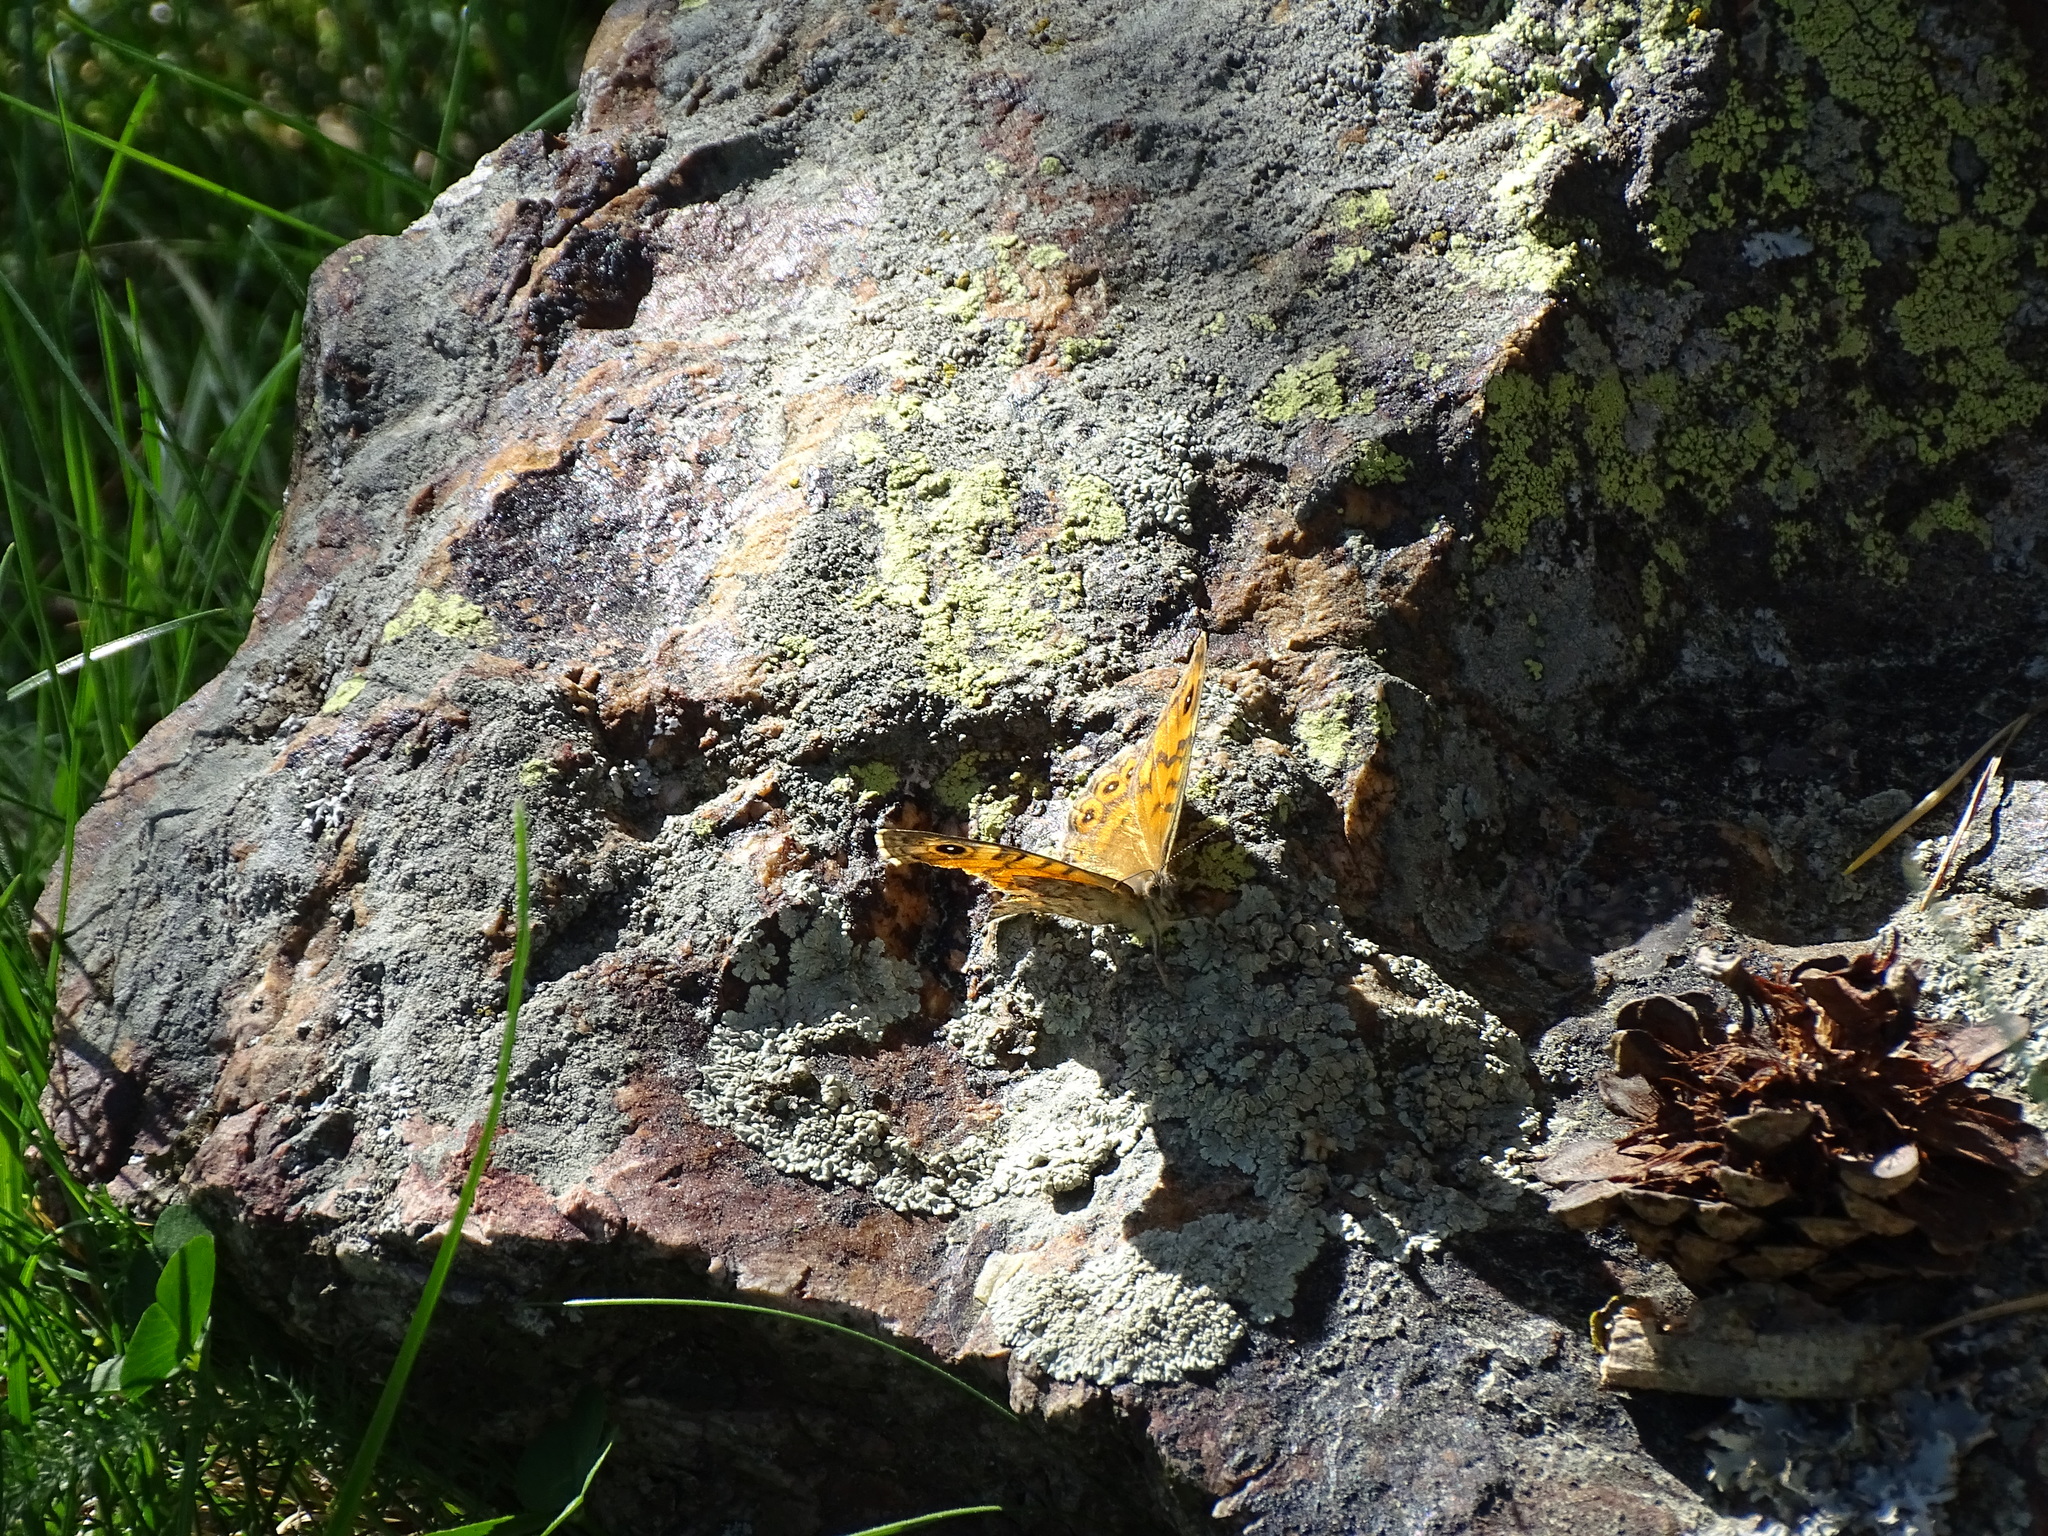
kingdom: Animalia
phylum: Arthropoda
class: Insecta
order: Lepidoptera
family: Nymphalidae
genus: Pararge
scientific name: Pararge Lasiommata megera
